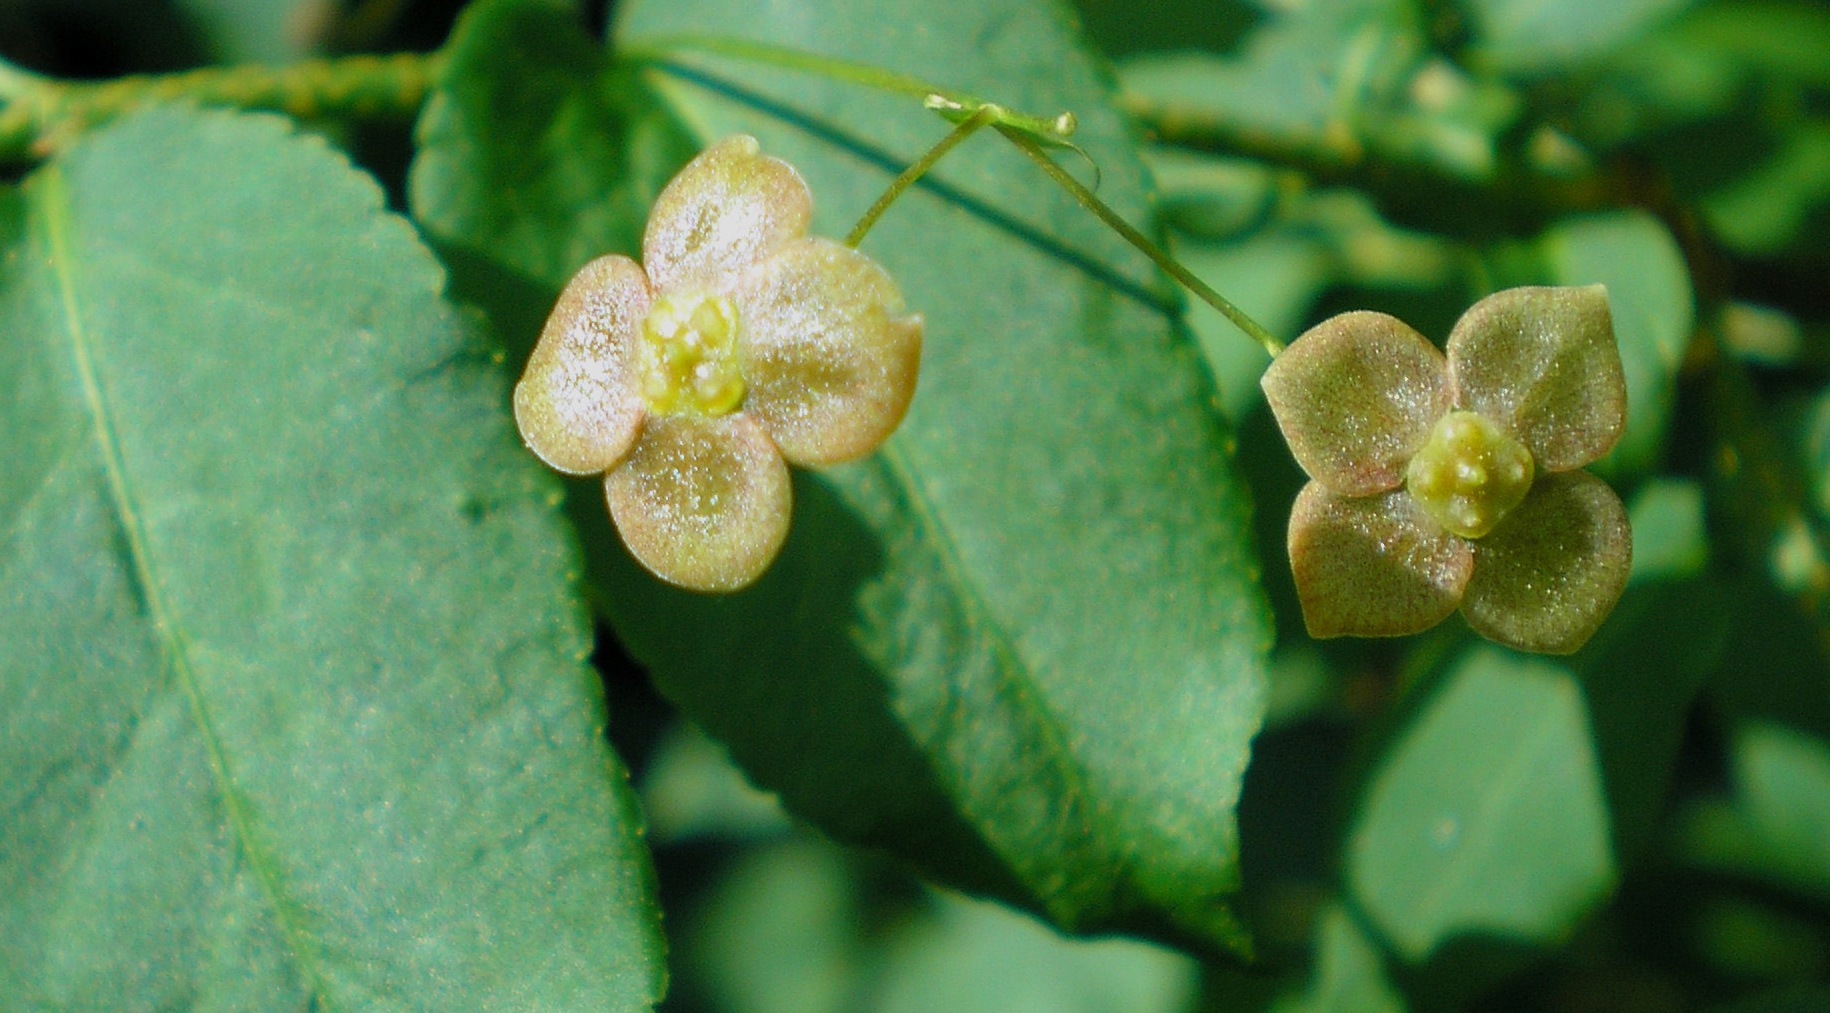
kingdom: Plantae
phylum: Tracheophyta
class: Magnoliopsida
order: Celastrales
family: Celastraceae
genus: Euonymus
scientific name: Euonymus verrucosus
